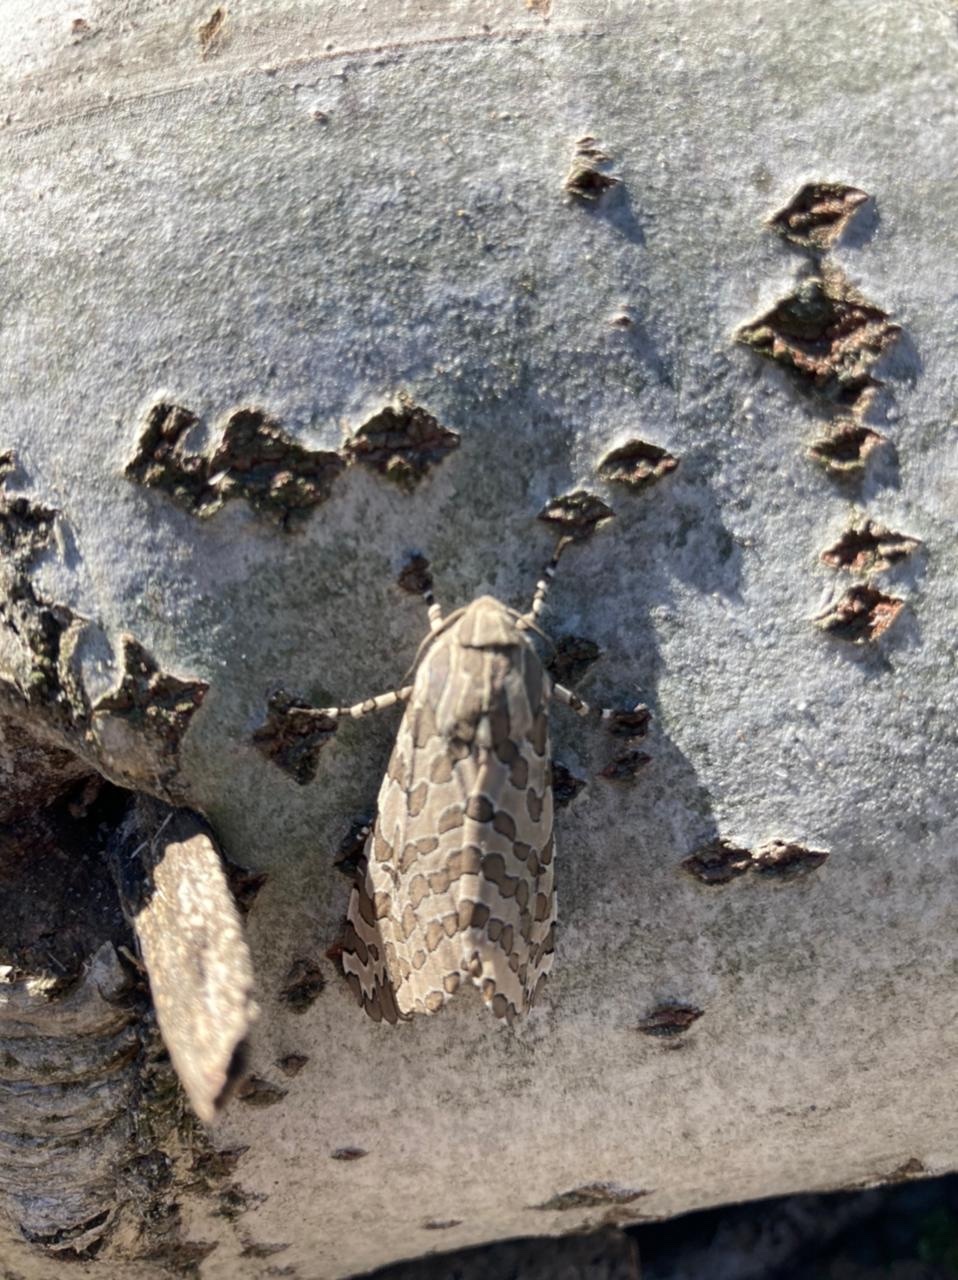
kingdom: Animalia
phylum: Arthropoda
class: Insecta
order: Lepidoptera
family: Erebidae
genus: Hypercompe
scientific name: Hypercompe indecisa
